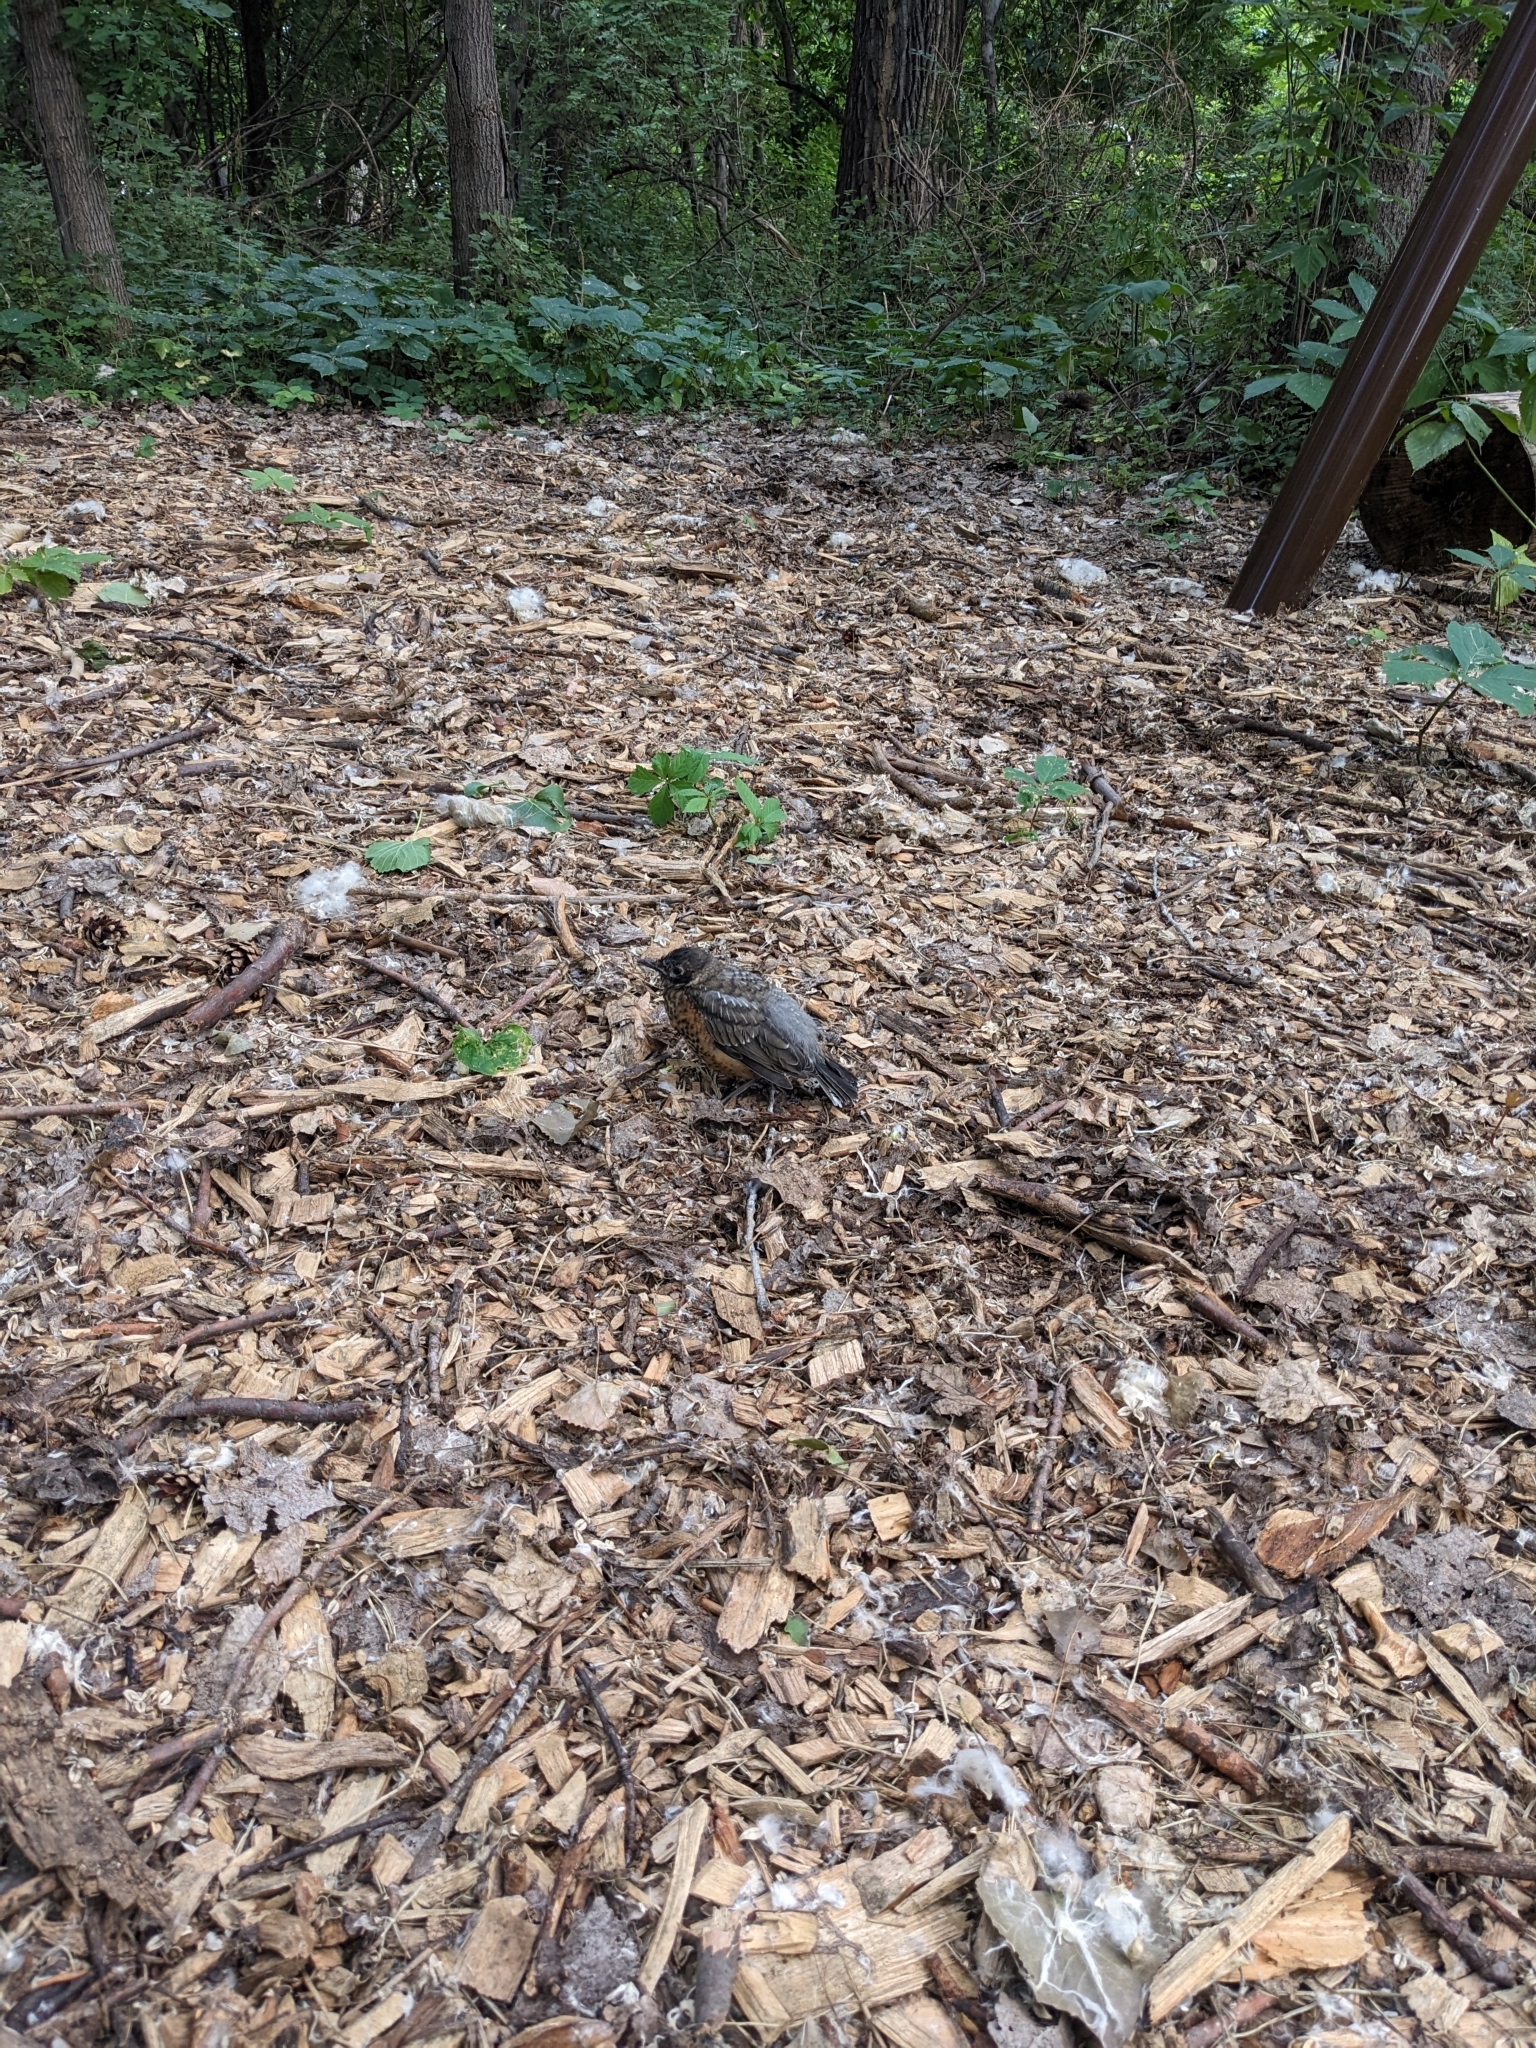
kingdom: Animalia
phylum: Chordata
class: Aves
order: Passeriformes
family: Turdidae
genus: Turdus
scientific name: Turdus migratorius
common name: American robin
